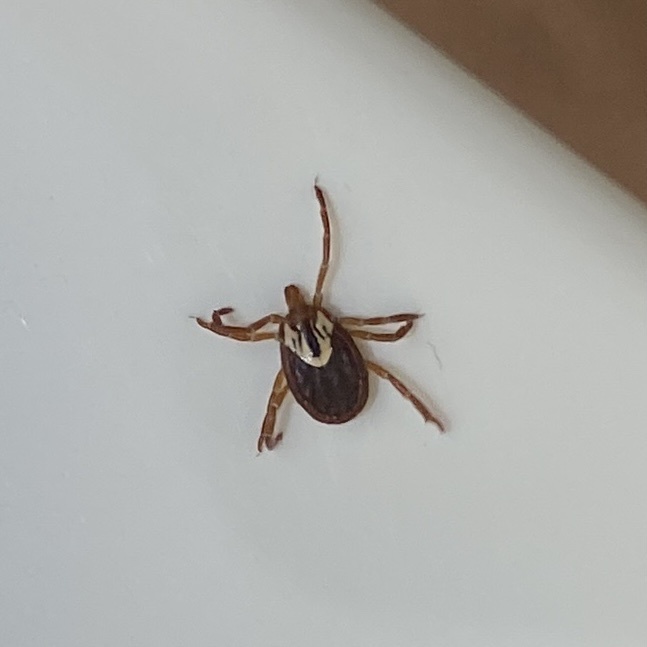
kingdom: Animalia
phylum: Arthropoda
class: Arachnida
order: Ixodida
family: Ixodidae
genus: Amblyomma
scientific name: Amblyomma maculatum
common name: Gulf coast tick
